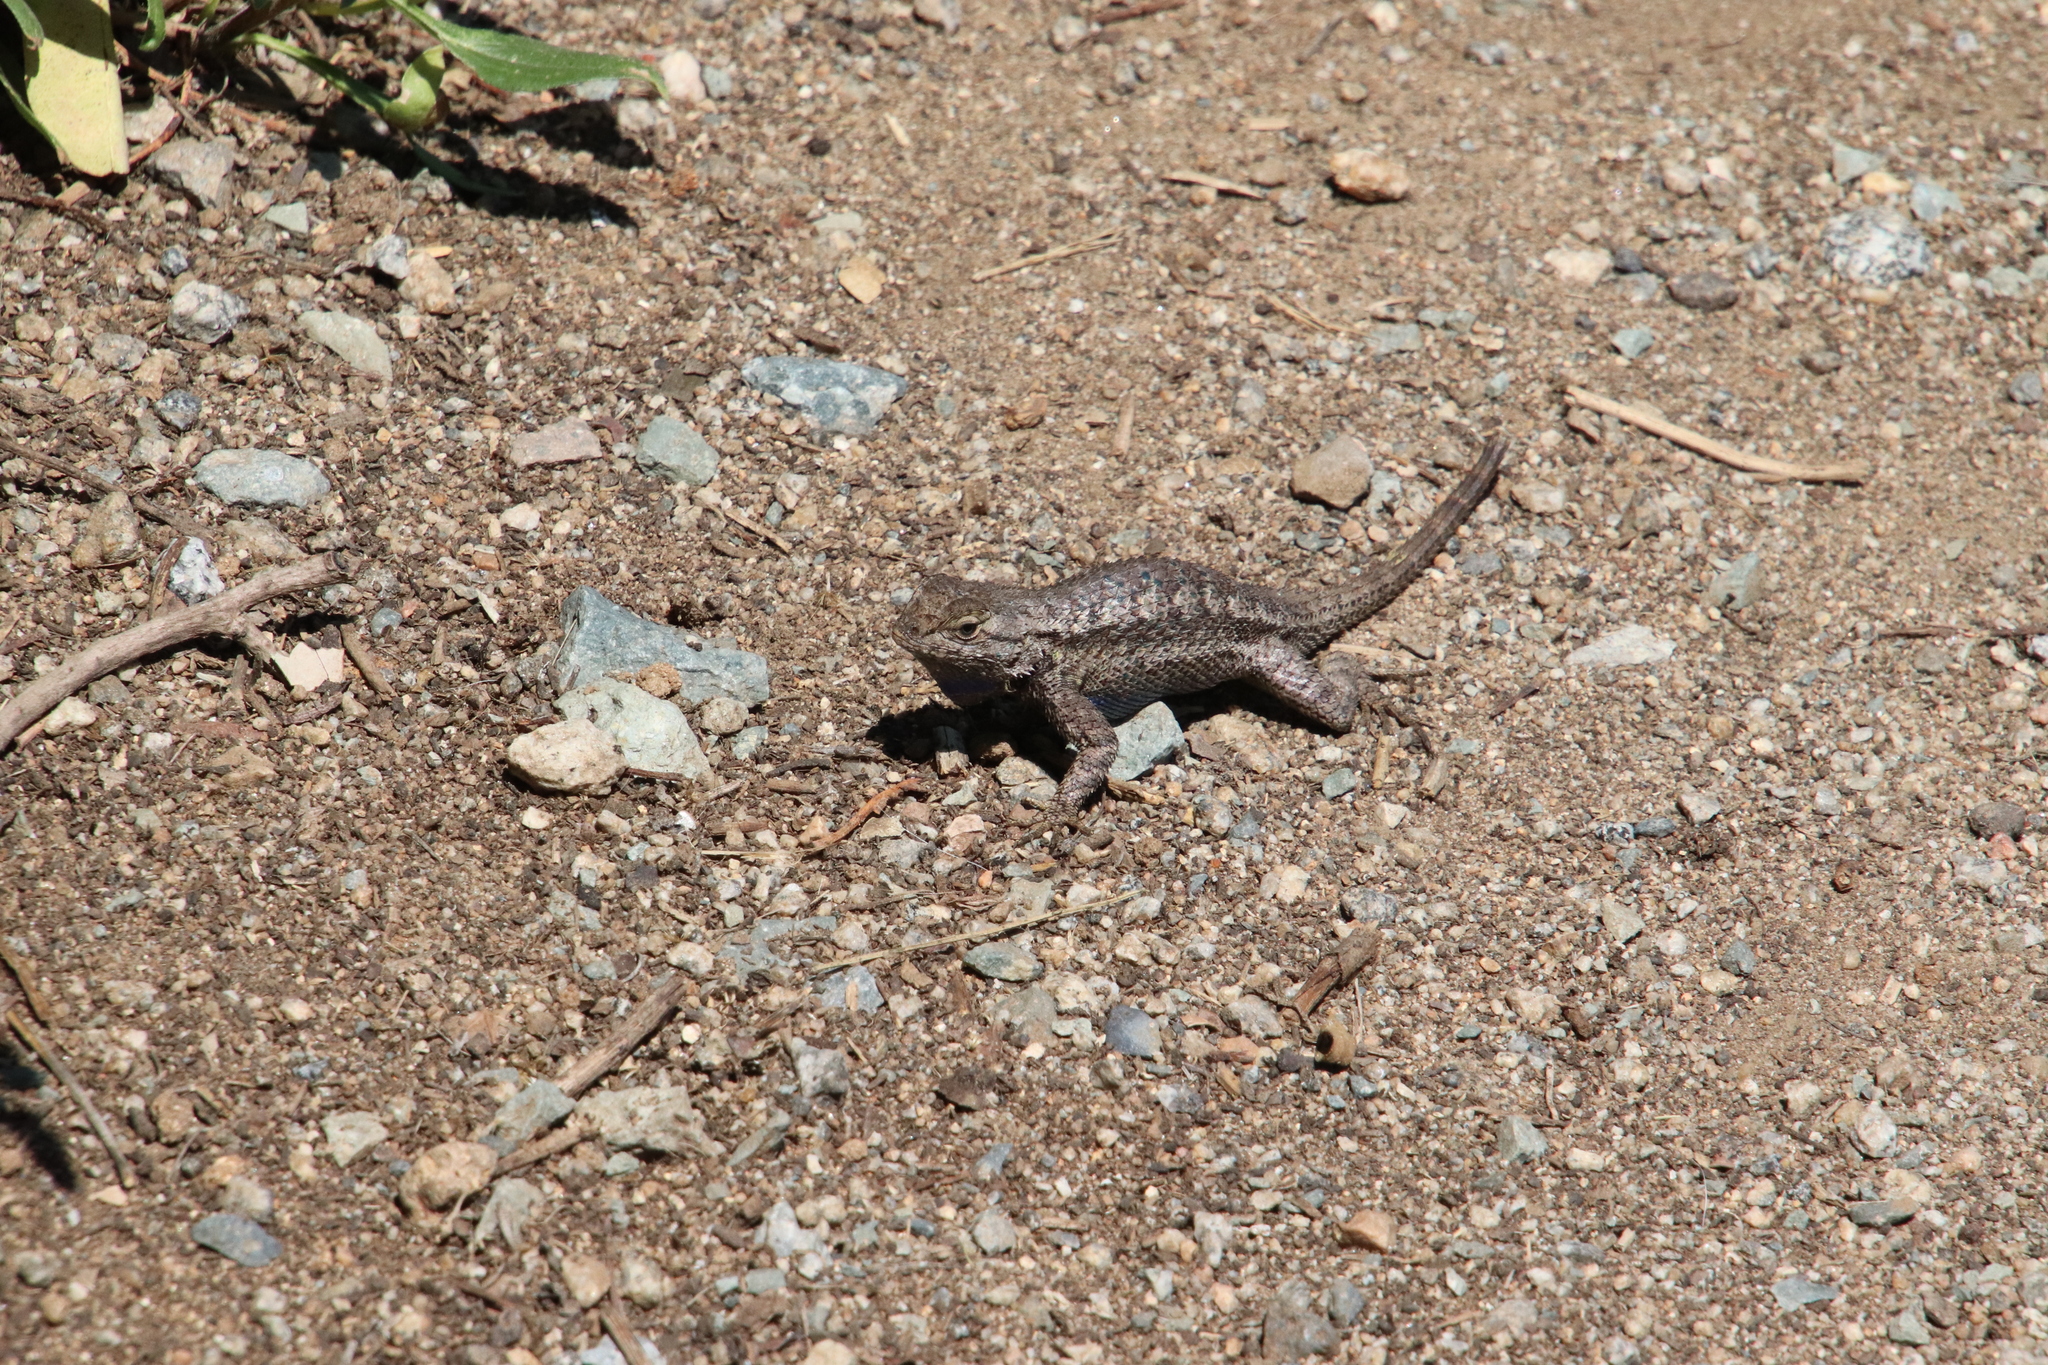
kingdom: Animalia
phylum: Chordata
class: Squamata
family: Phrynosomatidae
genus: Sceloporus
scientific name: Sceloporus occidentalis
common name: Western fence lizard
